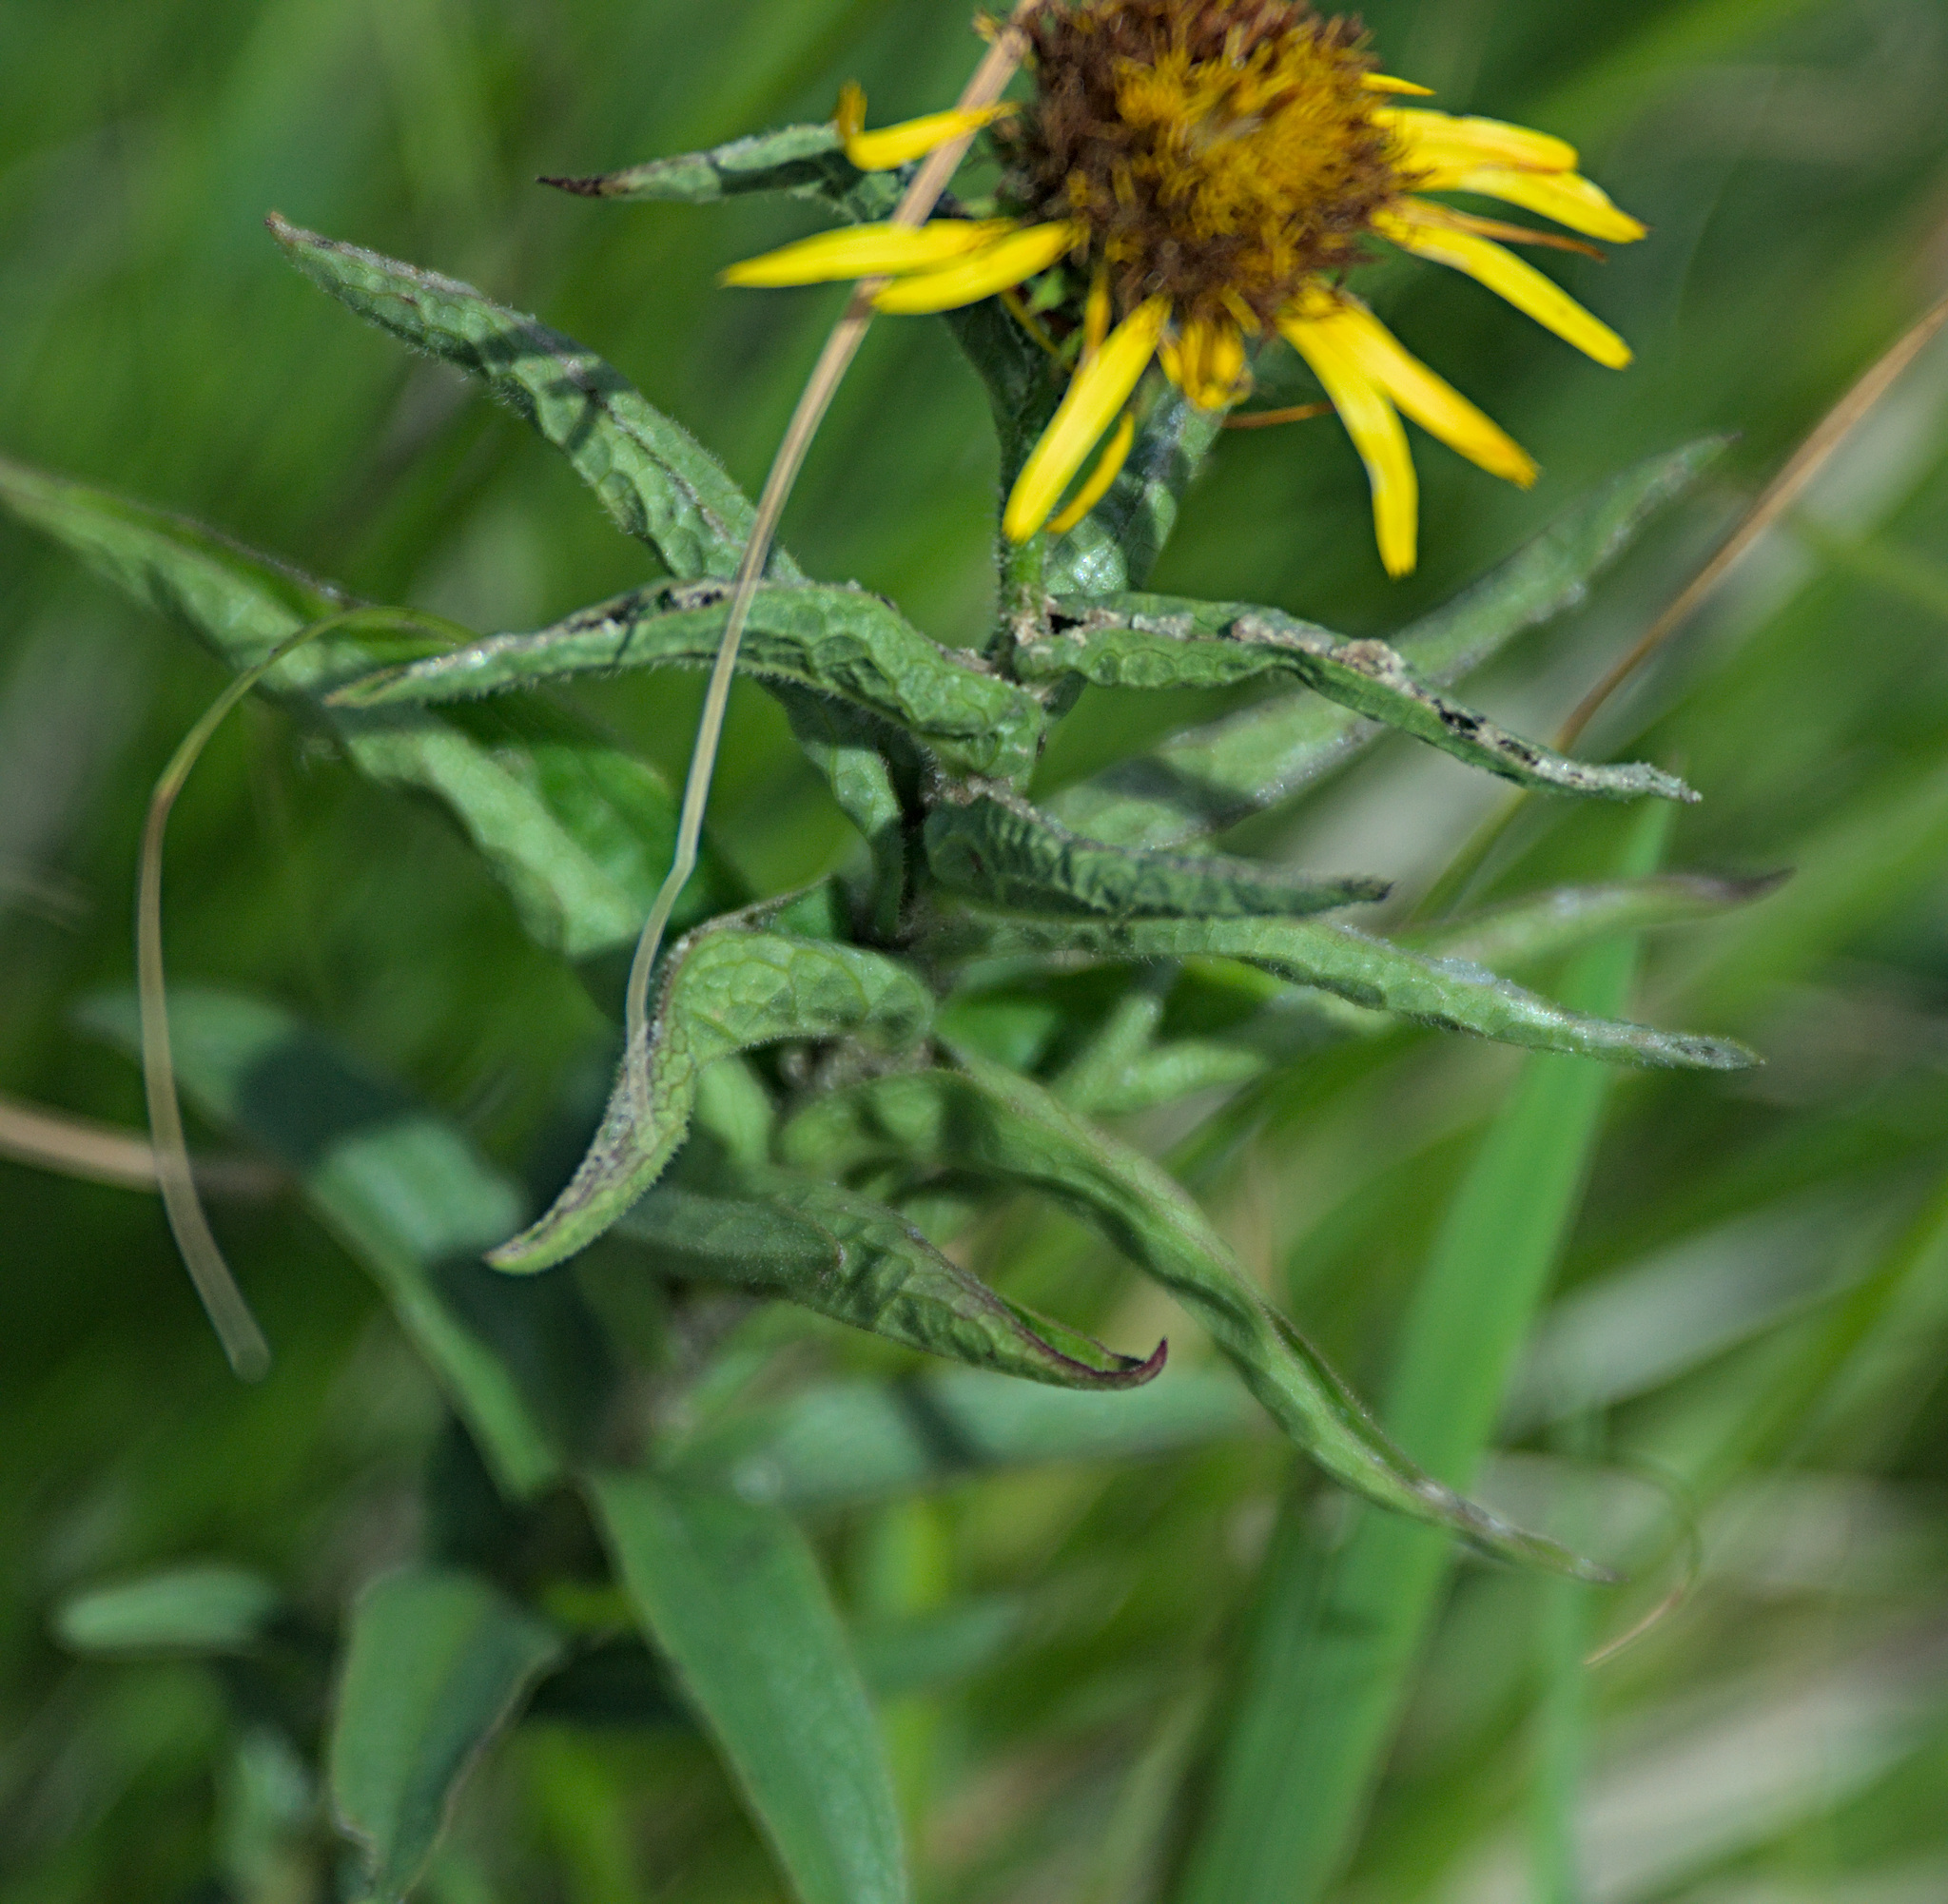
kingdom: Plantae
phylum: Tracheophyta
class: Magnoliopsida
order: Asterales
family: Asteraceae
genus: Pentanema
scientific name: Pentanema salicinum
